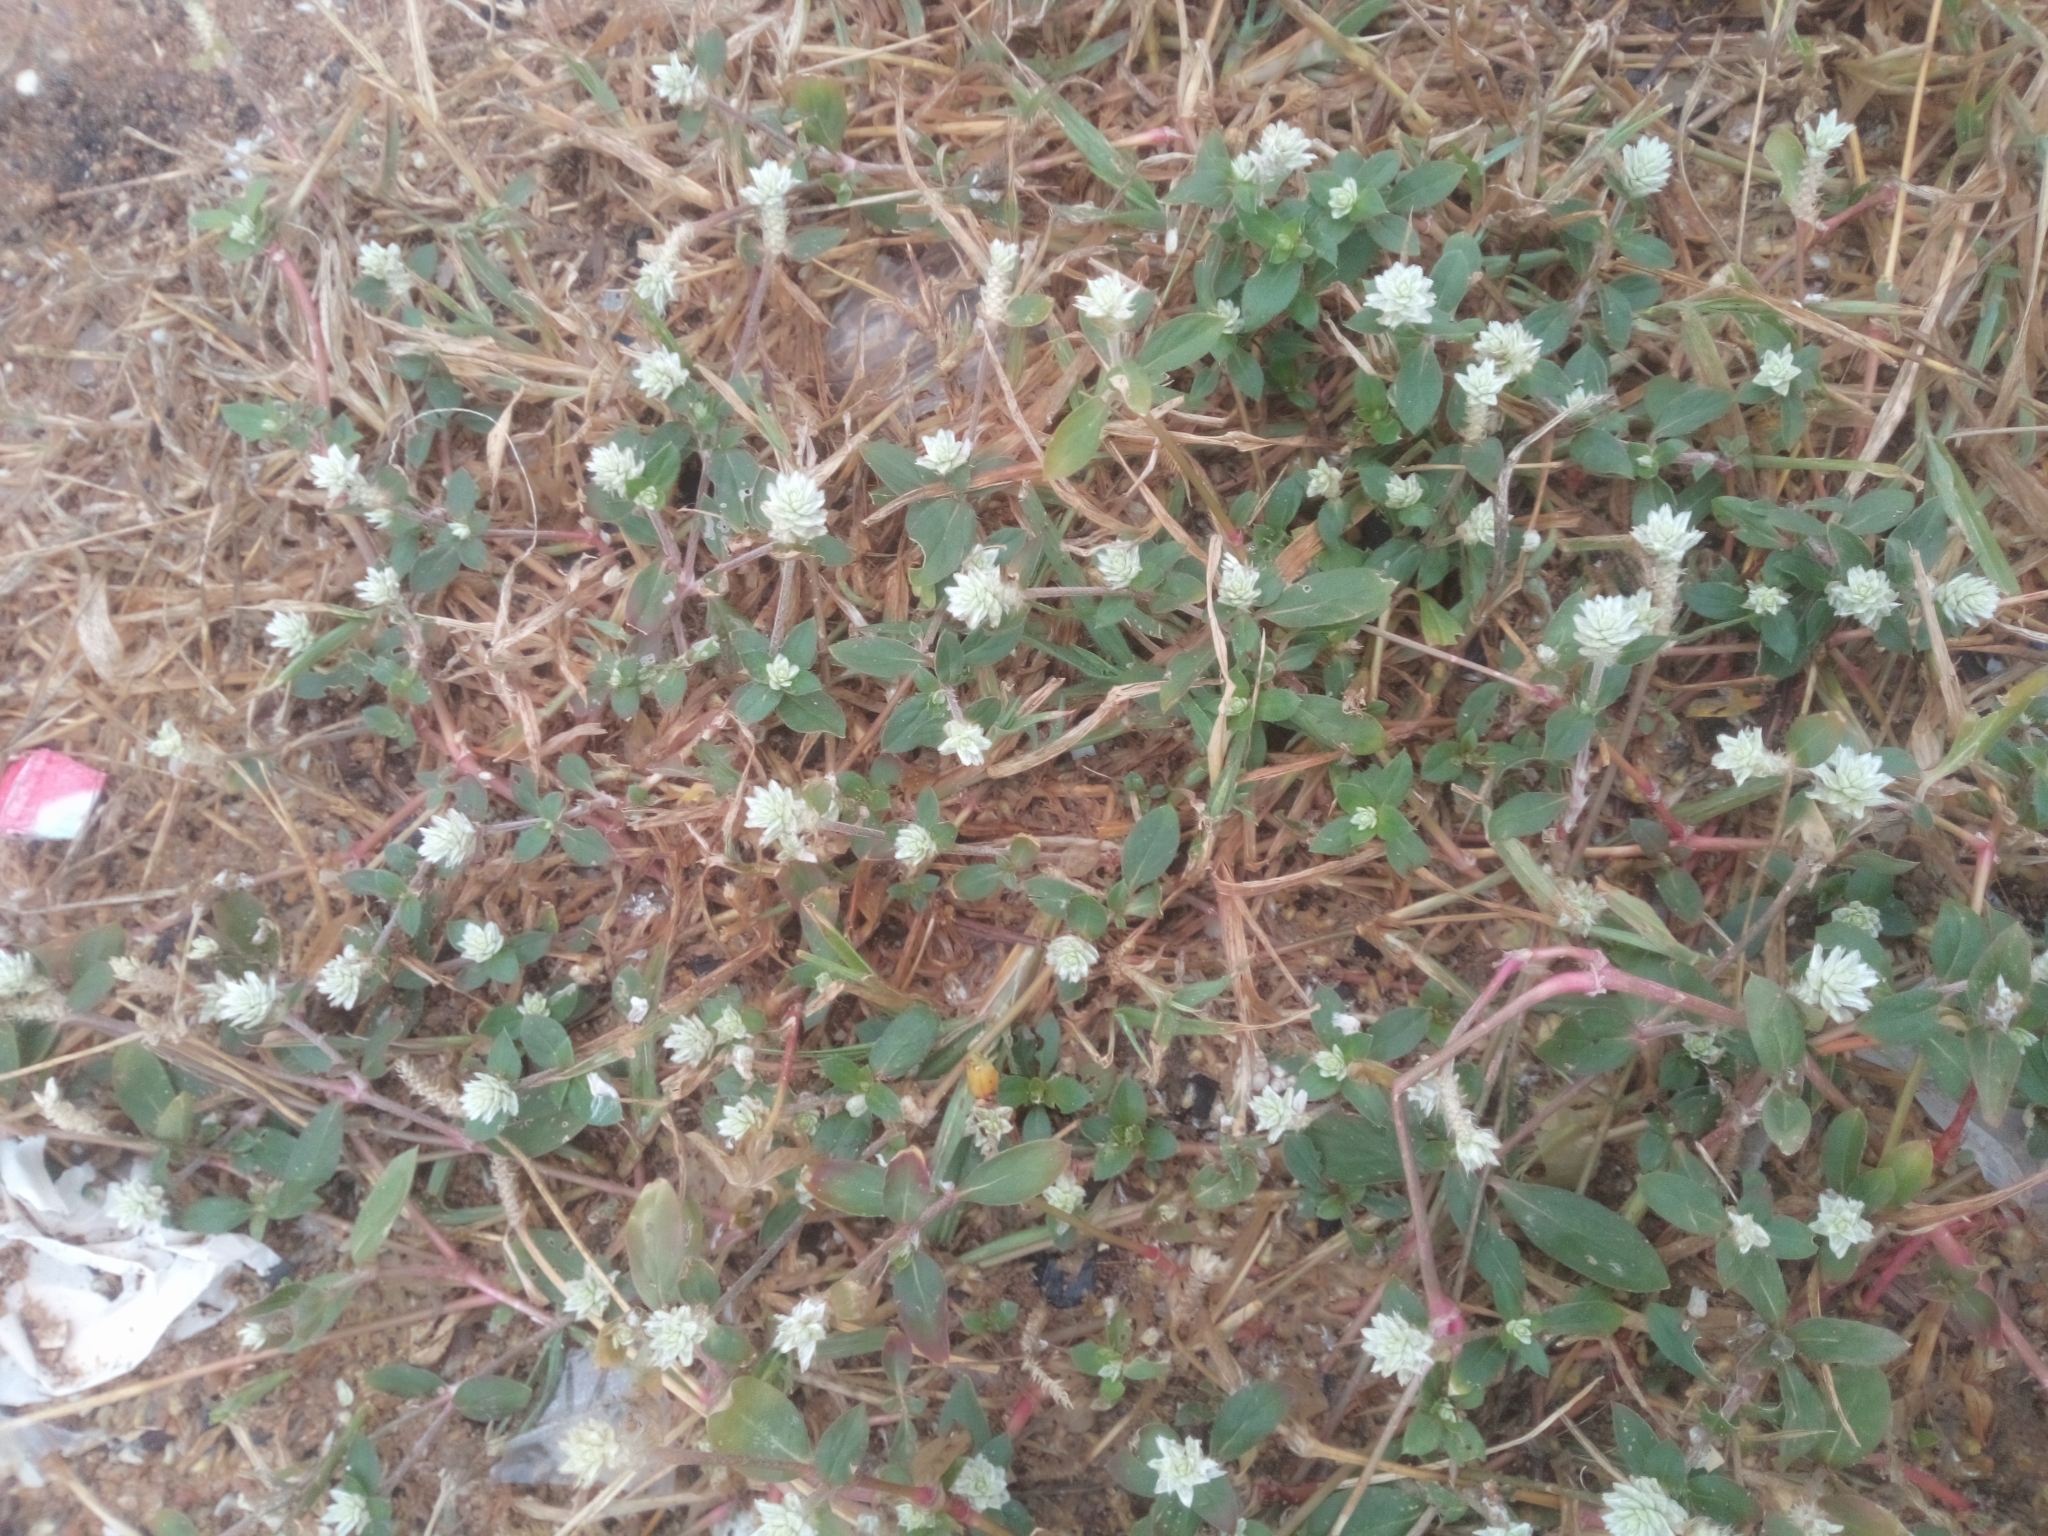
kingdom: Plantae
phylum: Tracheophyta
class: Magnoliopsida
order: Caryophyllales
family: Amaranthaceae
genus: Gomphrena
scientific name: Gomphrena celosioides
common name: Gomphrena-weed
